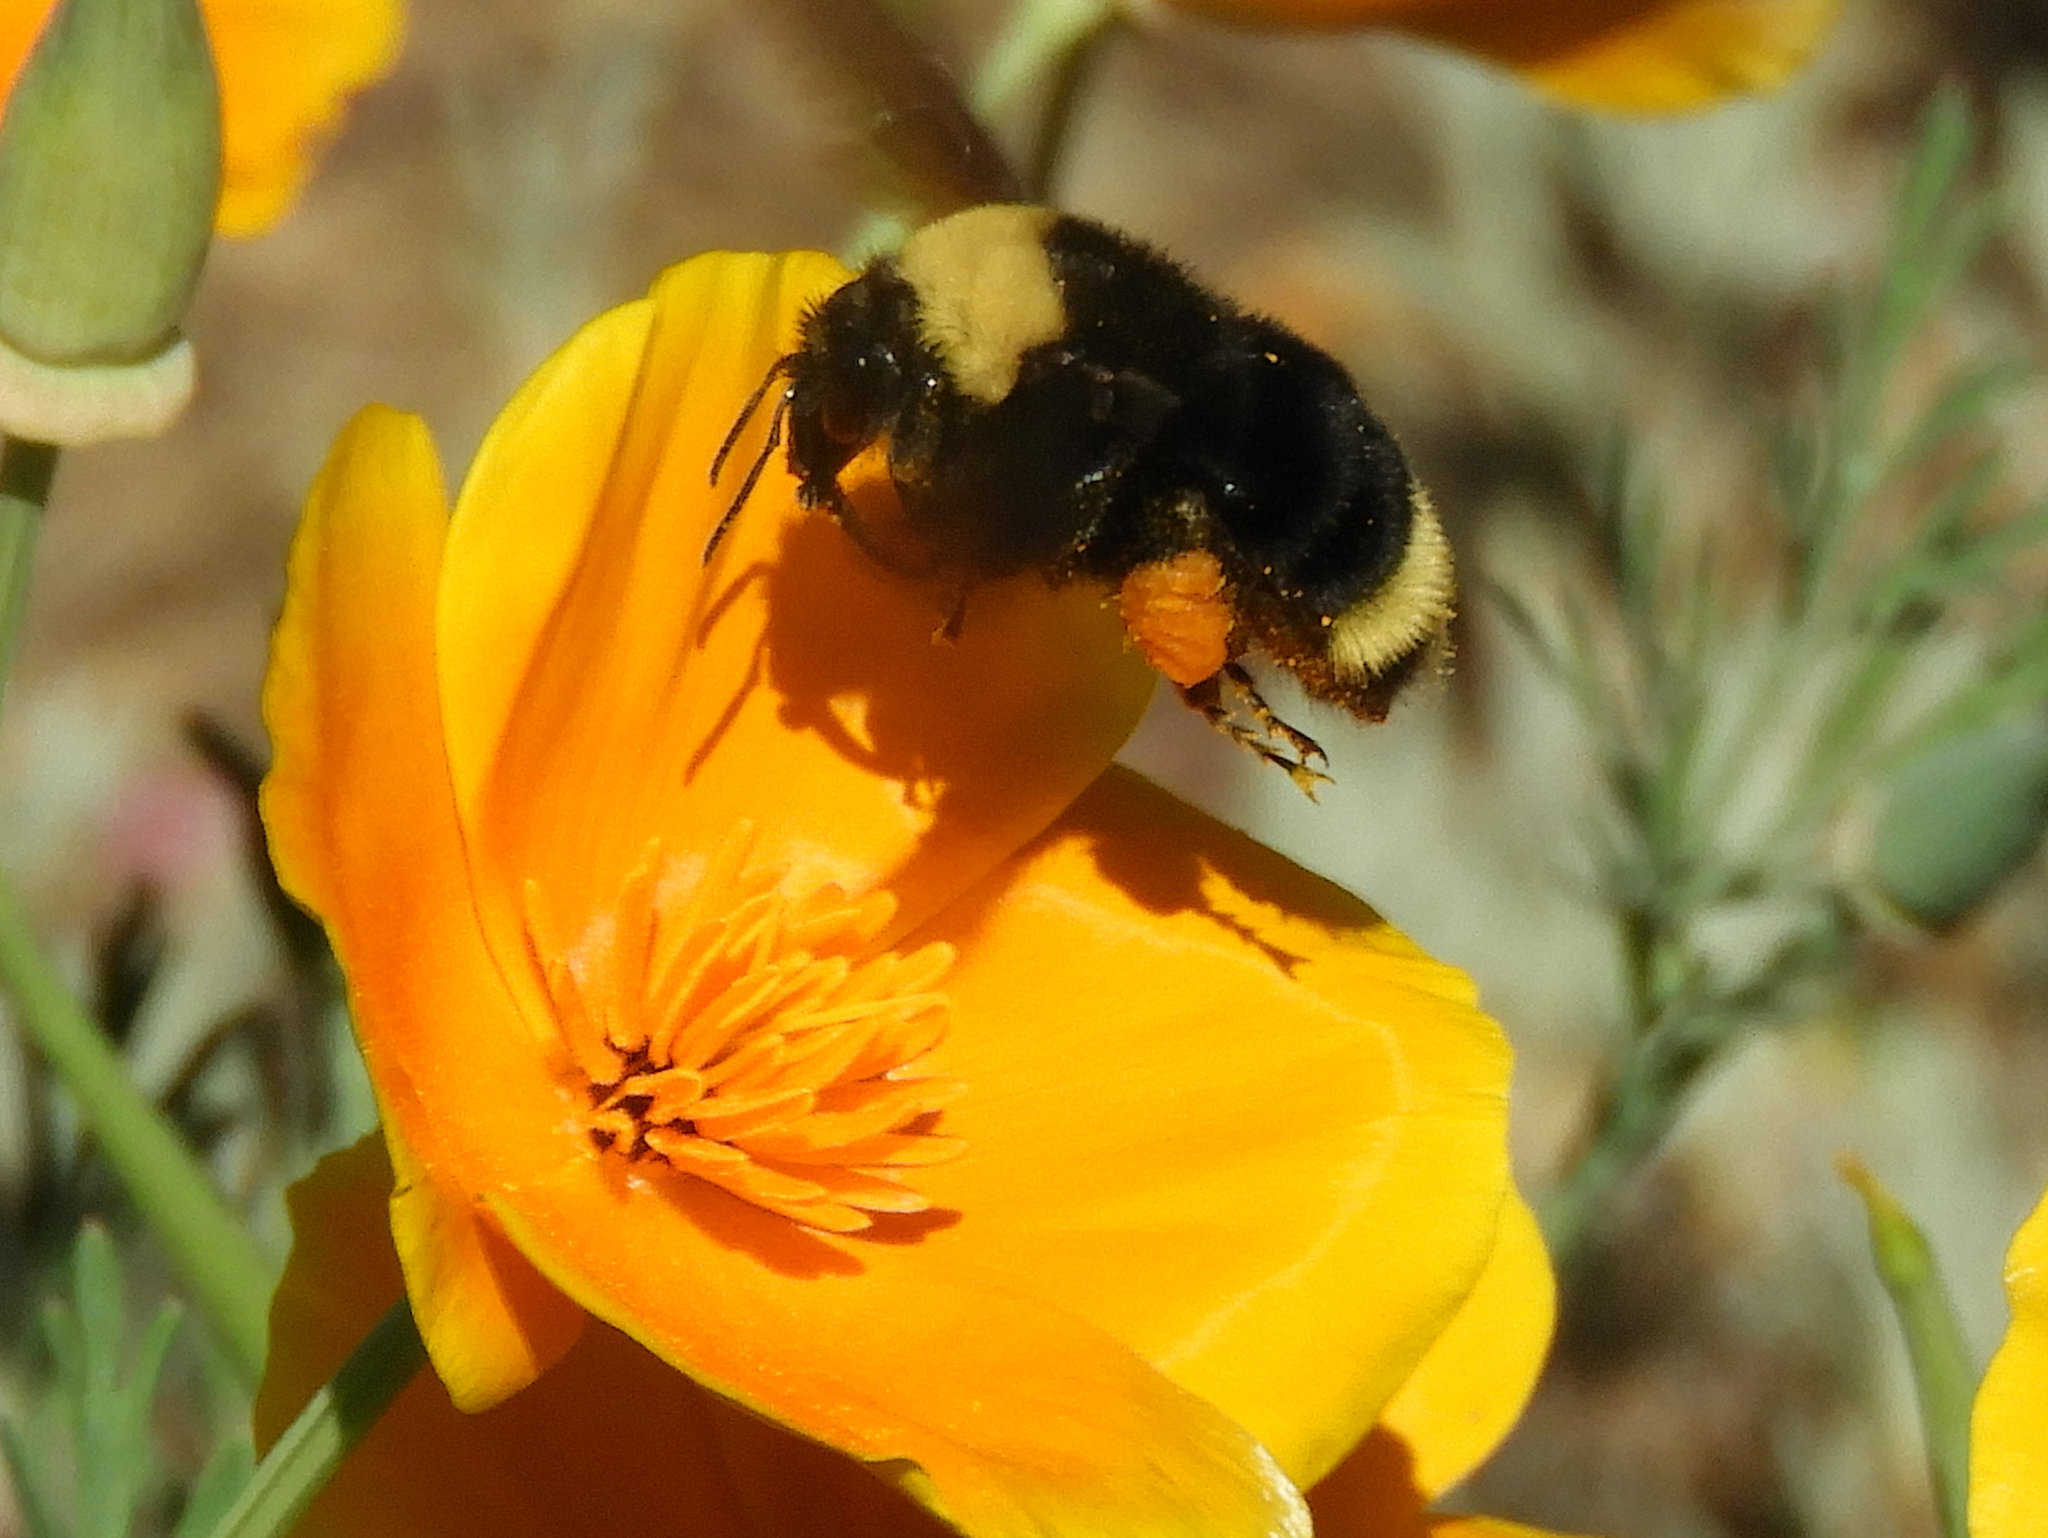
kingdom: Animalia
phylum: Arthropoda
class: Insecta
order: Hymenoptera
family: Apidae
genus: Bombus
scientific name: Bombus californicus
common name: California bumble bee
